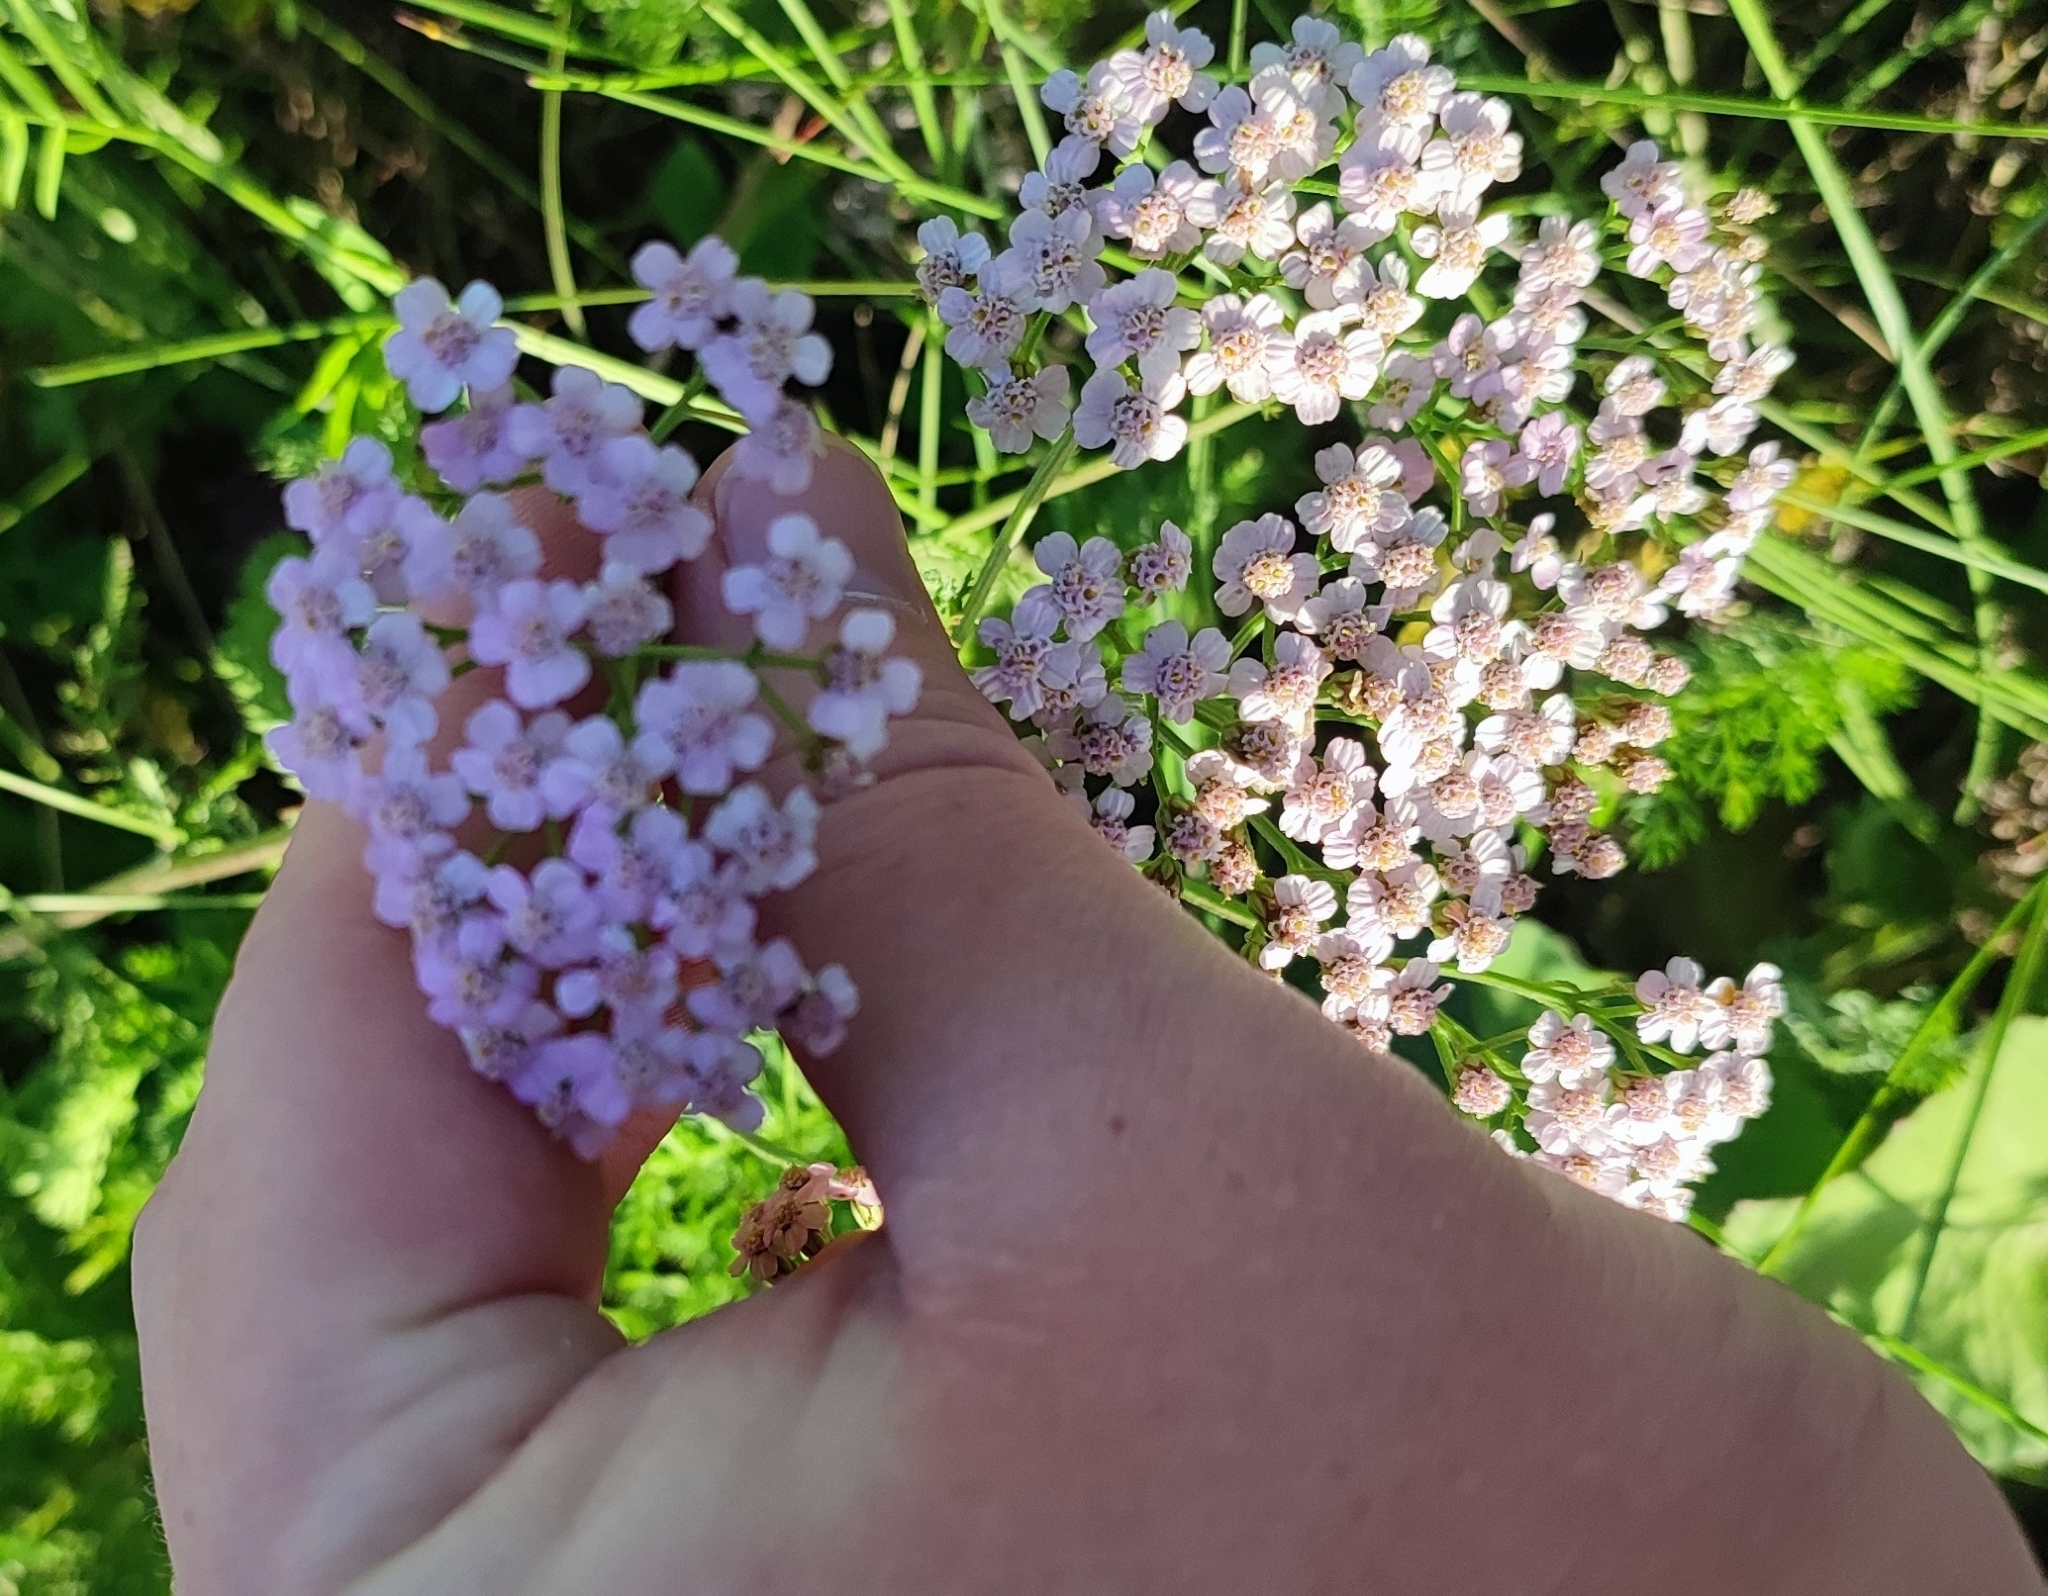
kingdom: Plantae
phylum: Tracheophyta
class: Magnoliopsida
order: Asterales
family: Asteraceae
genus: Achillea
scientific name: Achillea asiatica
